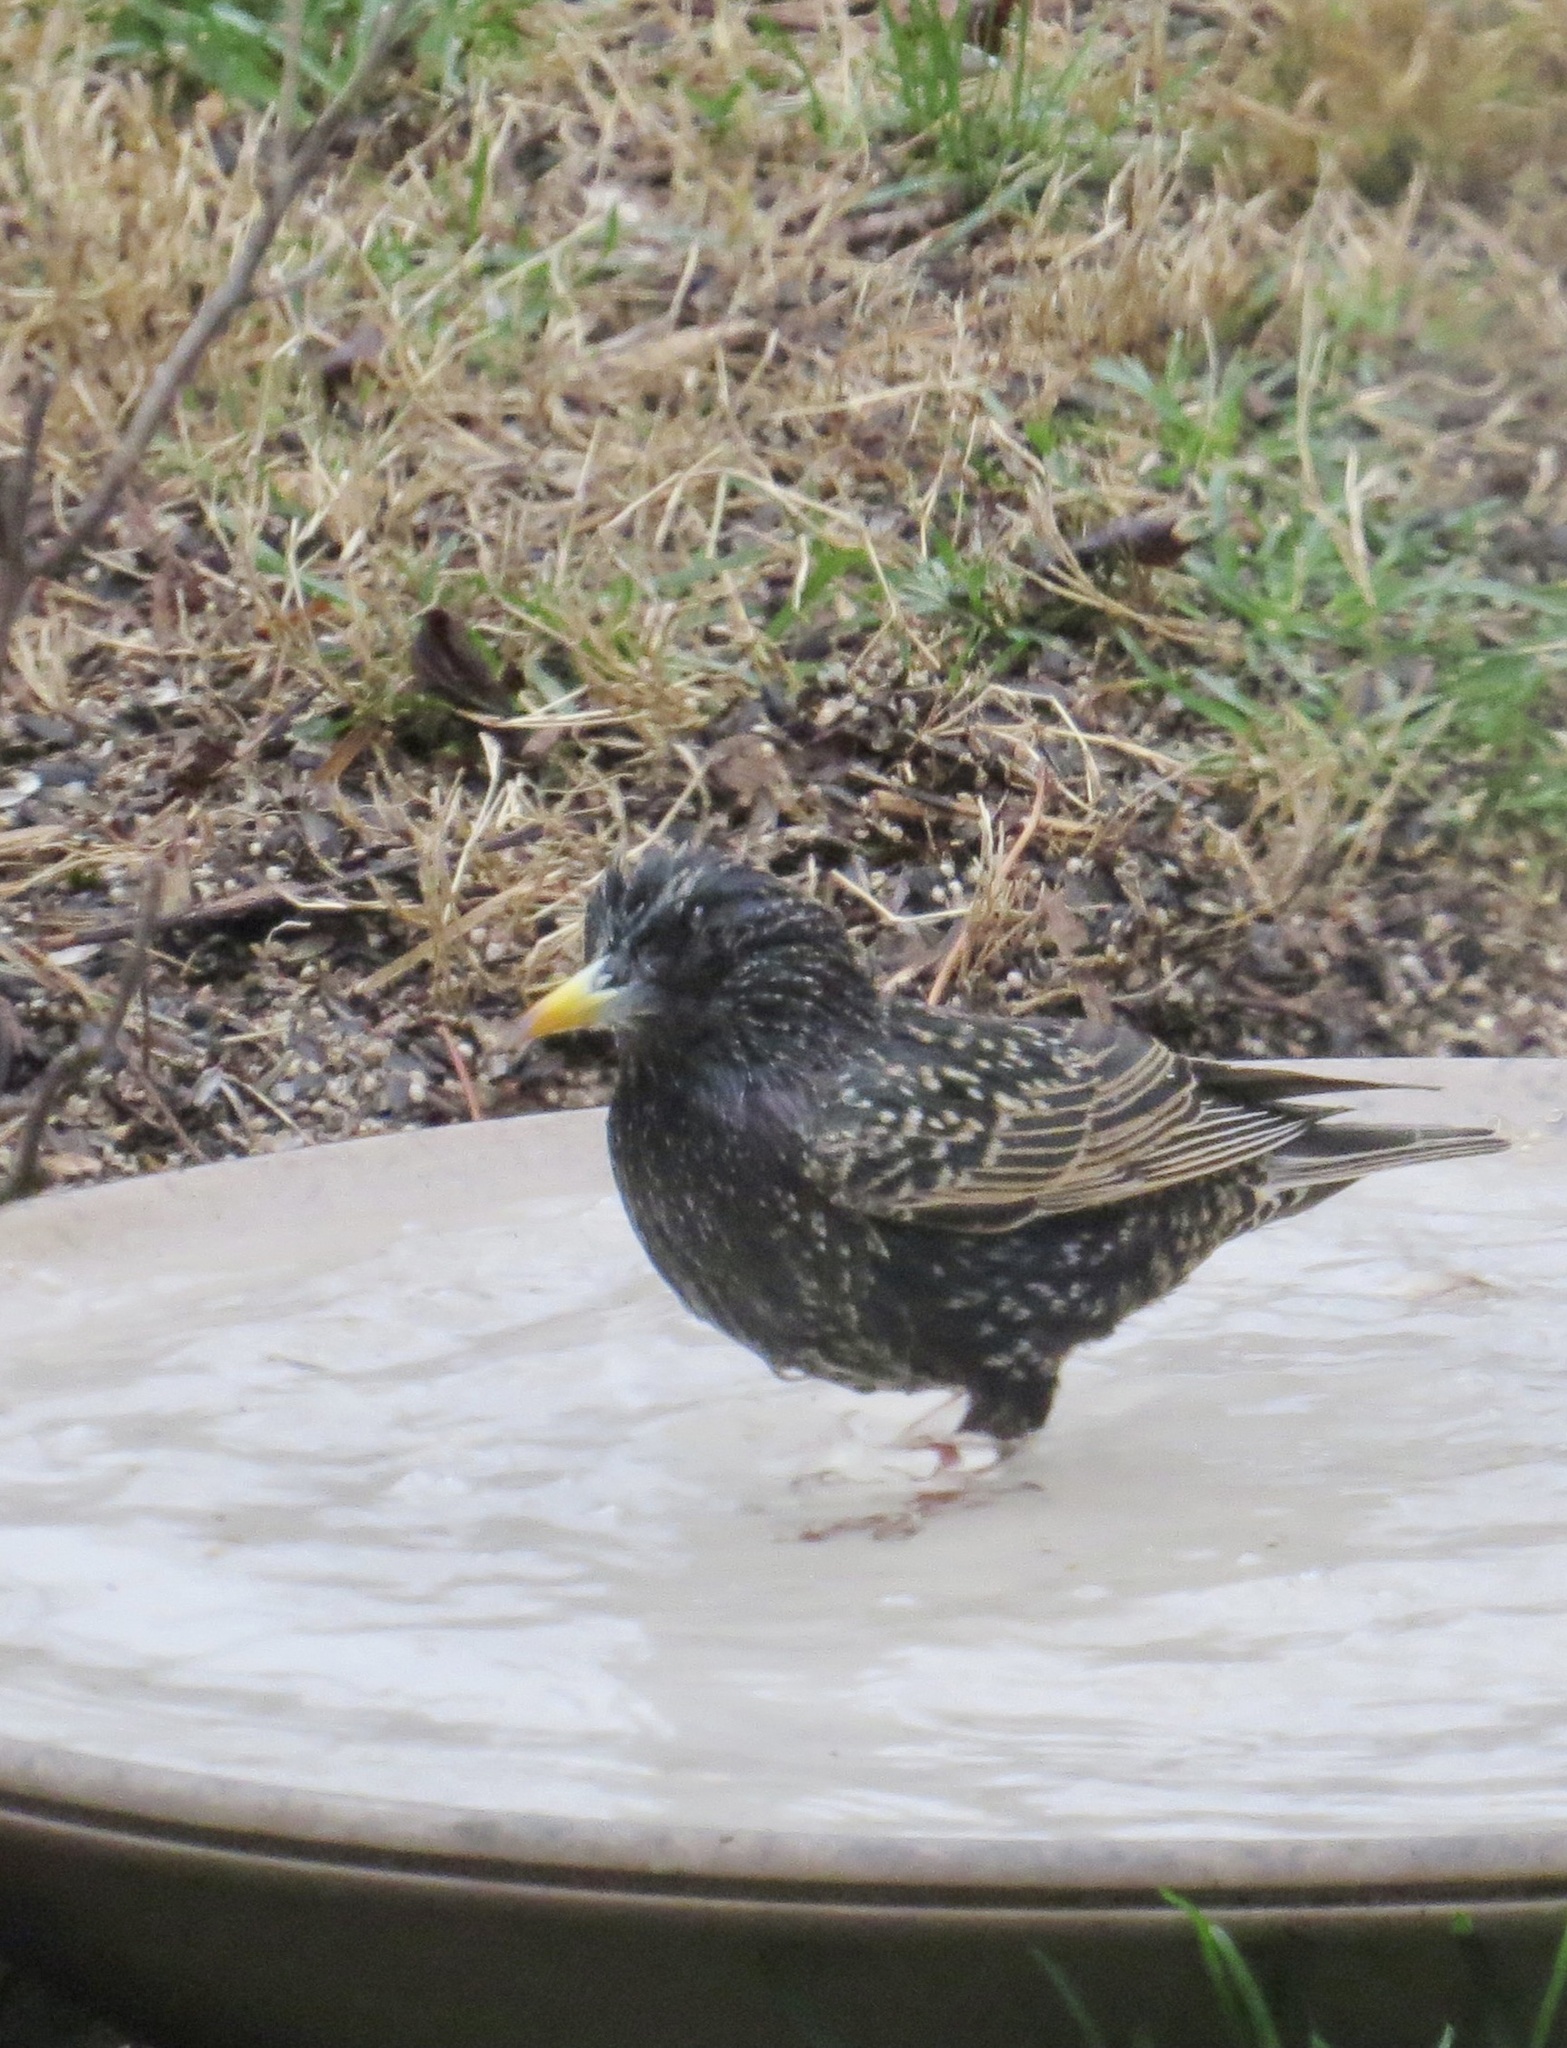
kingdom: Animalia
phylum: Chordata
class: Aves
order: Passeriformes
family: Sturnidae
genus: Sturnus
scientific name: Sturnus vulgaris
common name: Common starling
